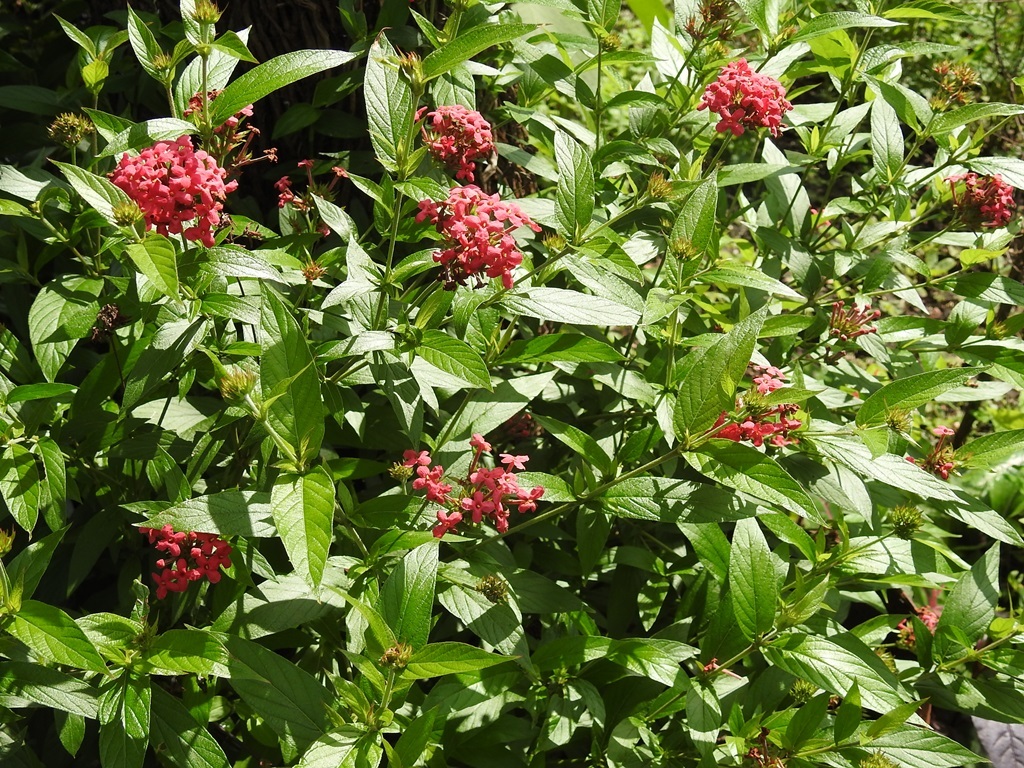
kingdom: Plantae
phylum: Tracheophyta
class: Magnoliopsida
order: Gentianales
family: Rubiaceae
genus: Arachnothryx
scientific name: Arachnothryx leucophylla
